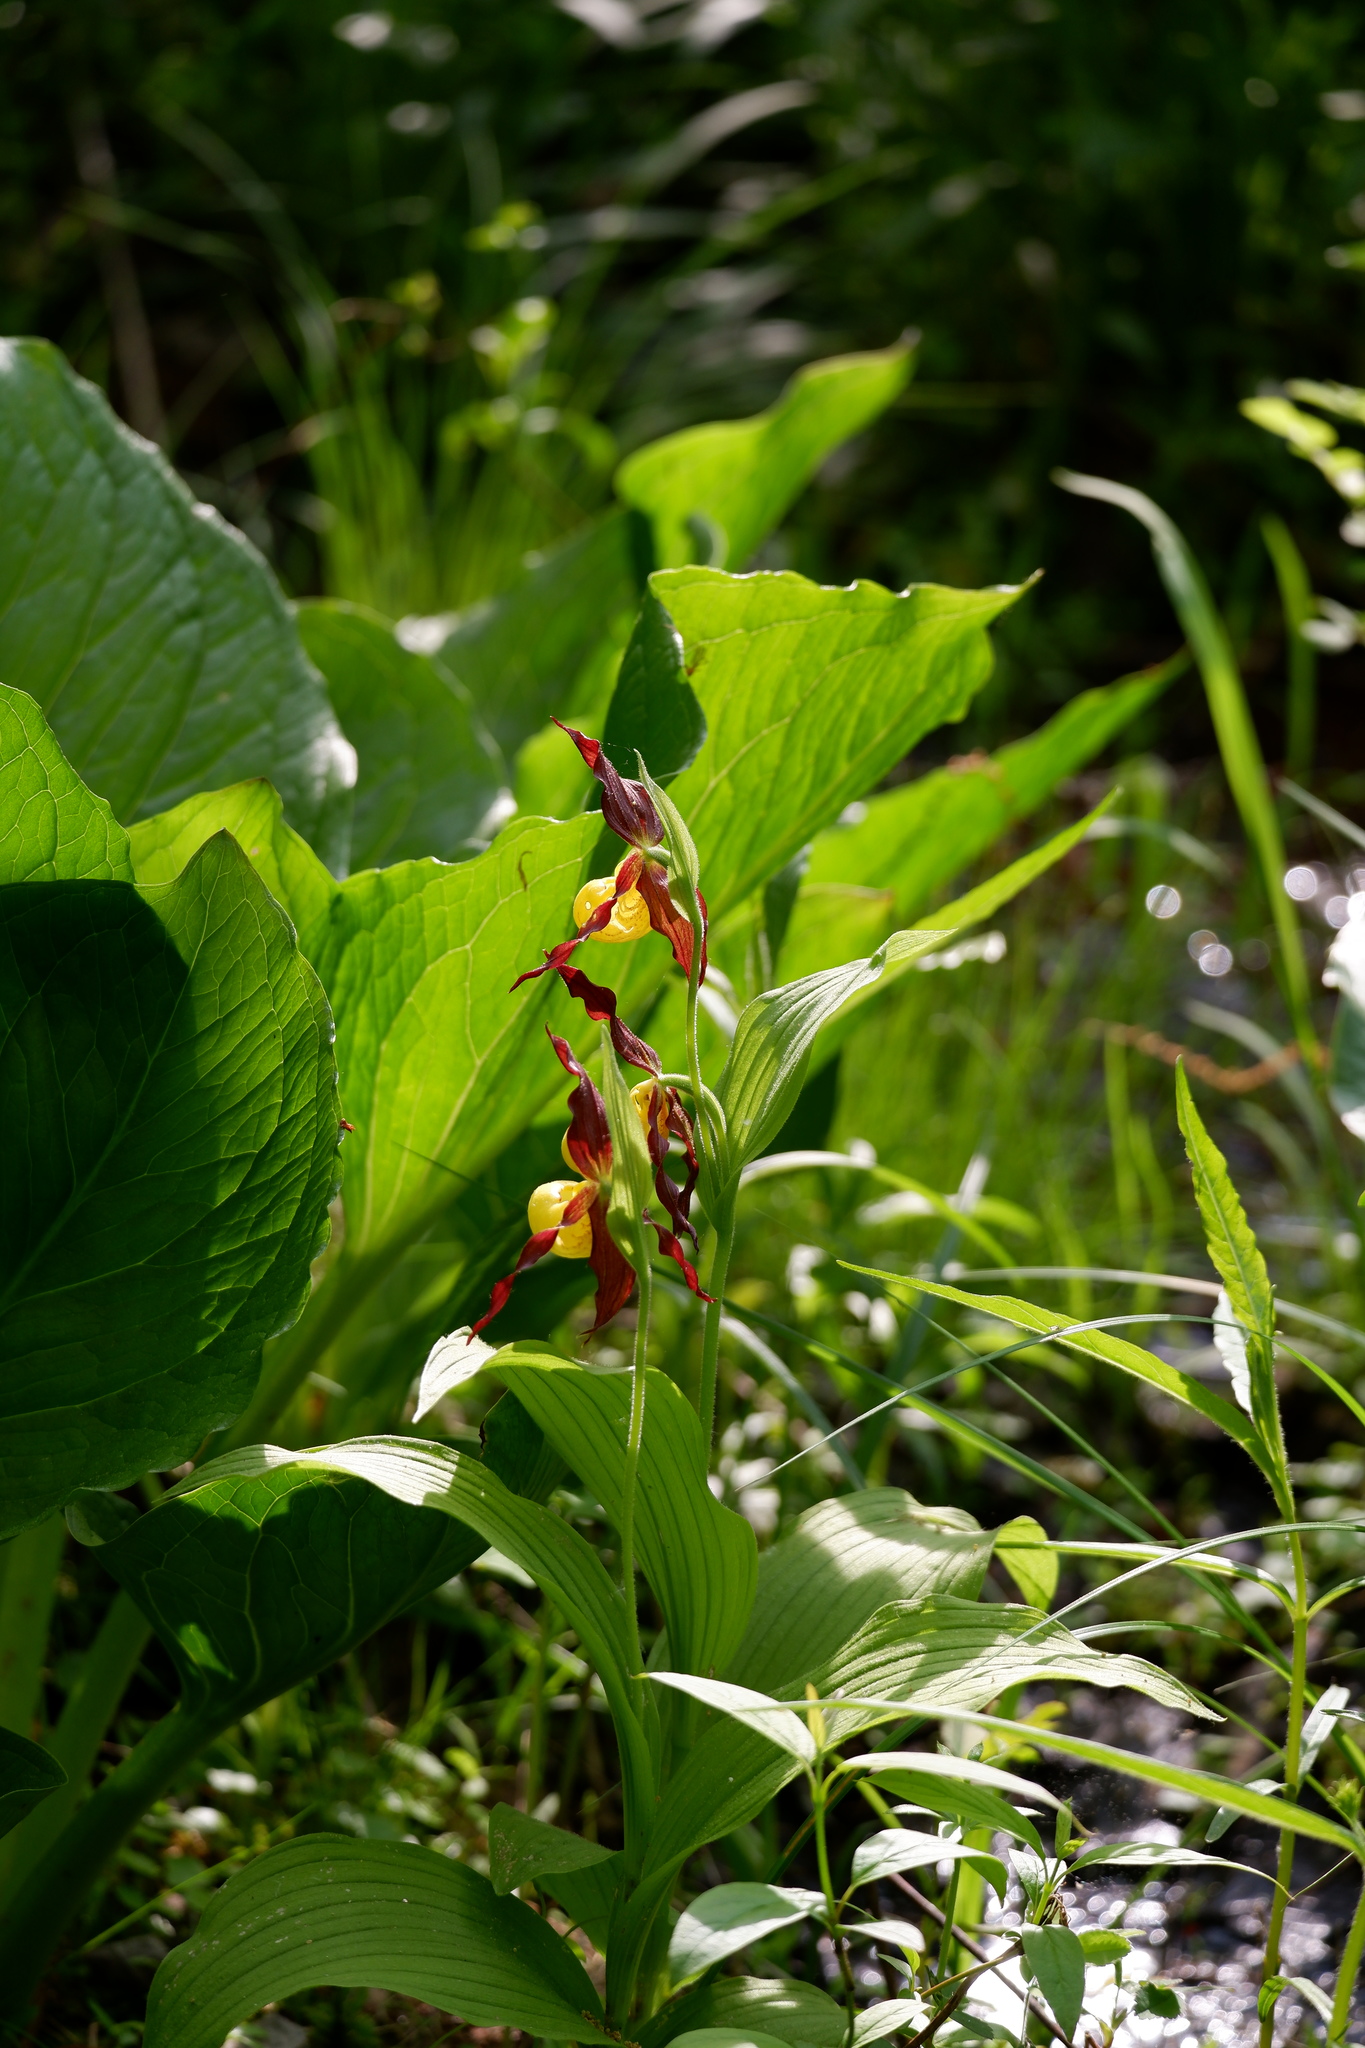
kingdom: Plantae
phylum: Tracheophyta
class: Liliopsida
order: Asparagales
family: Orchidaceae
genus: Cypripedium
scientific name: Cypripedium parviflorum
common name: American yellow lady's-slipper
